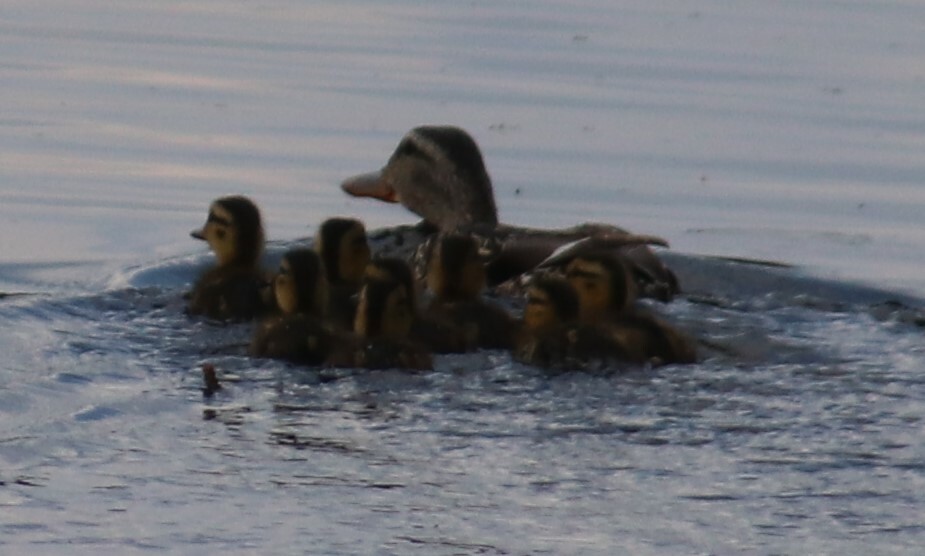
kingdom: Animalia
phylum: Chordata
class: Aves
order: Anseriformes
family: Anatidae
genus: Anas
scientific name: Anas platyrhynchos
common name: Mallard
